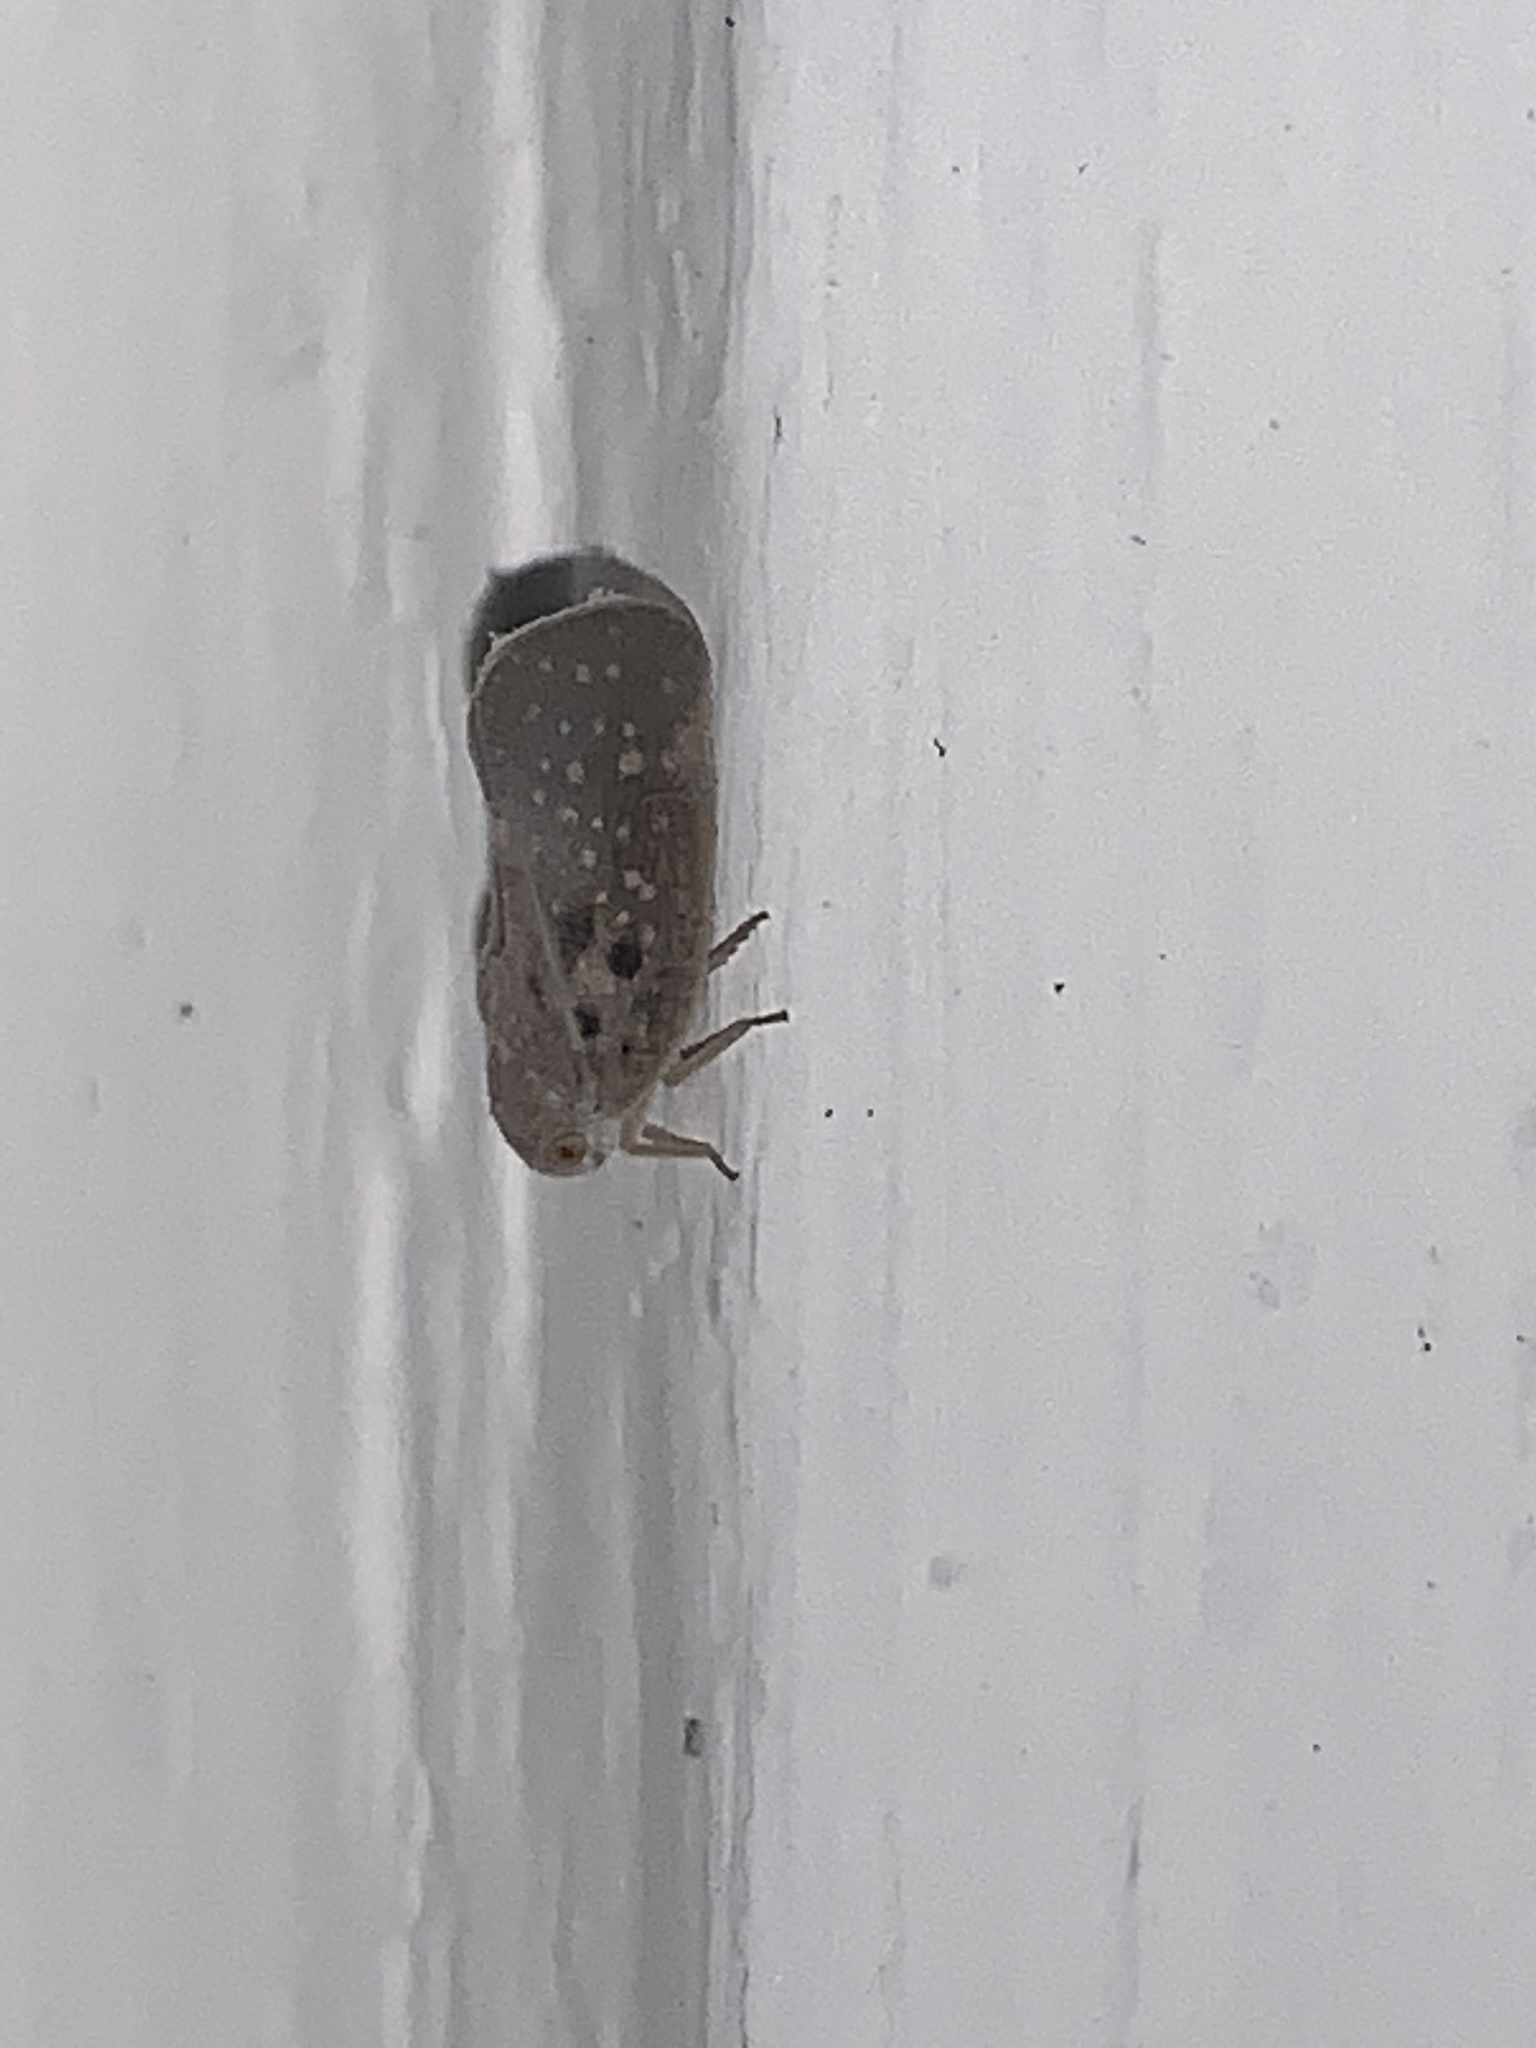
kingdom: Animalia
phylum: Arthropoda
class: Insecta
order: Hemiptera
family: Flatidae
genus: Metcalfa
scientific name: Metcalfa pruinosa
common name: Citrus flatid planthopper
